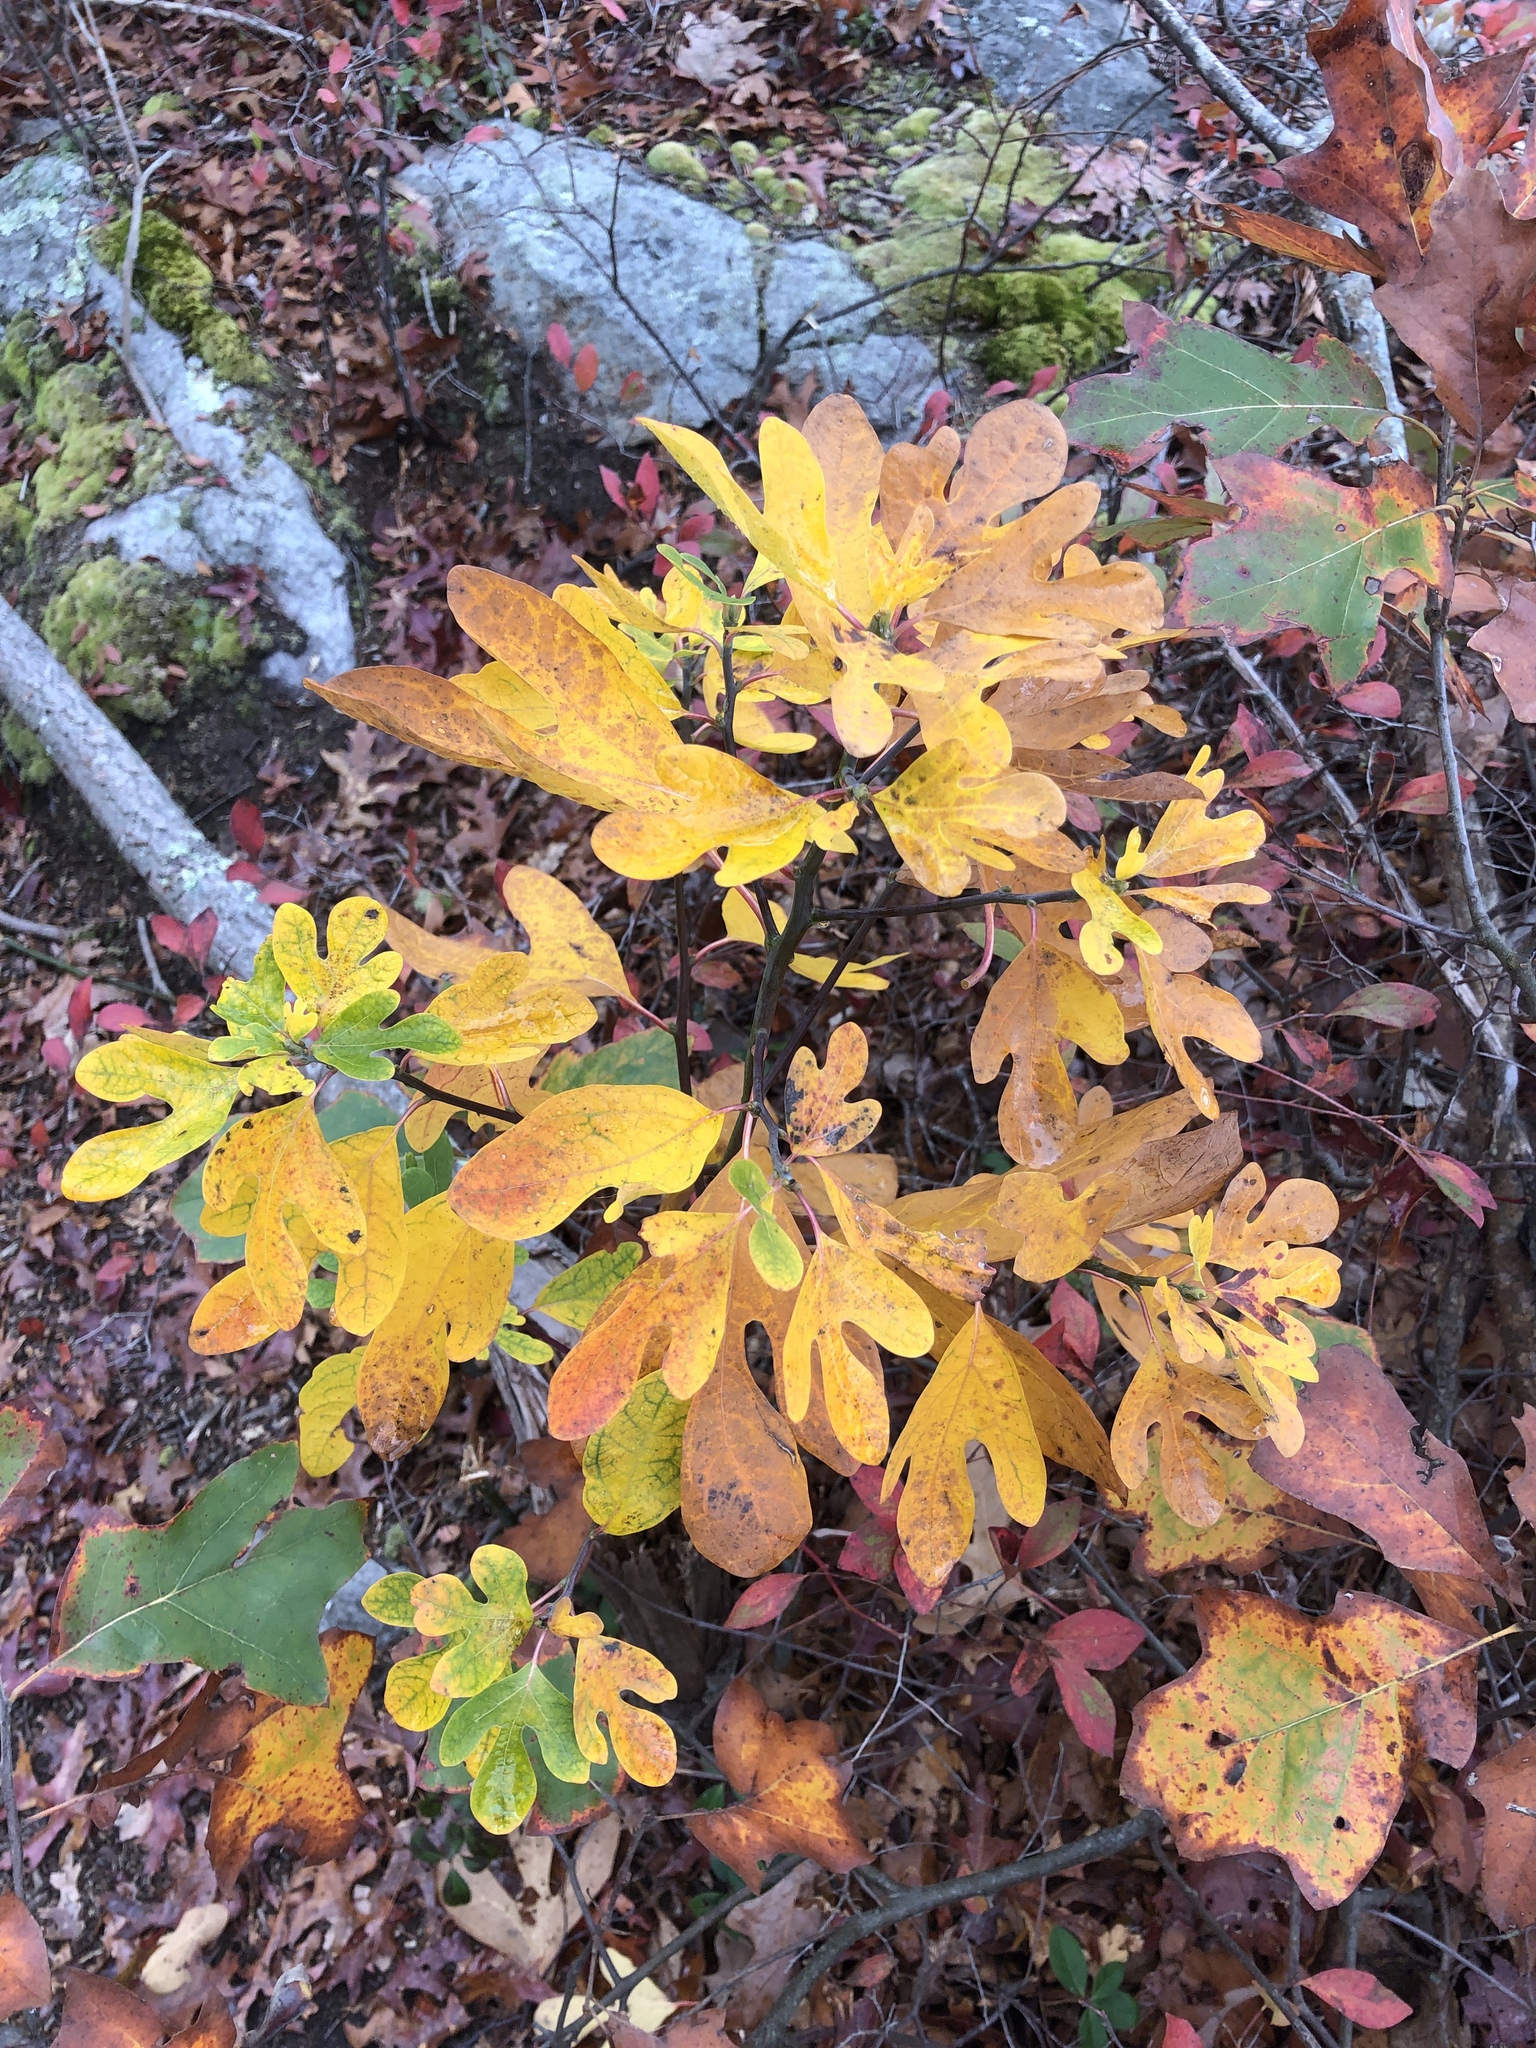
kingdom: Plantae
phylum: Tracheophyta
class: Magnoliopsida
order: Laurales
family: Lauraceae
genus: Sassafras
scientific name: Sassafras albidum
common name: Sassafras
